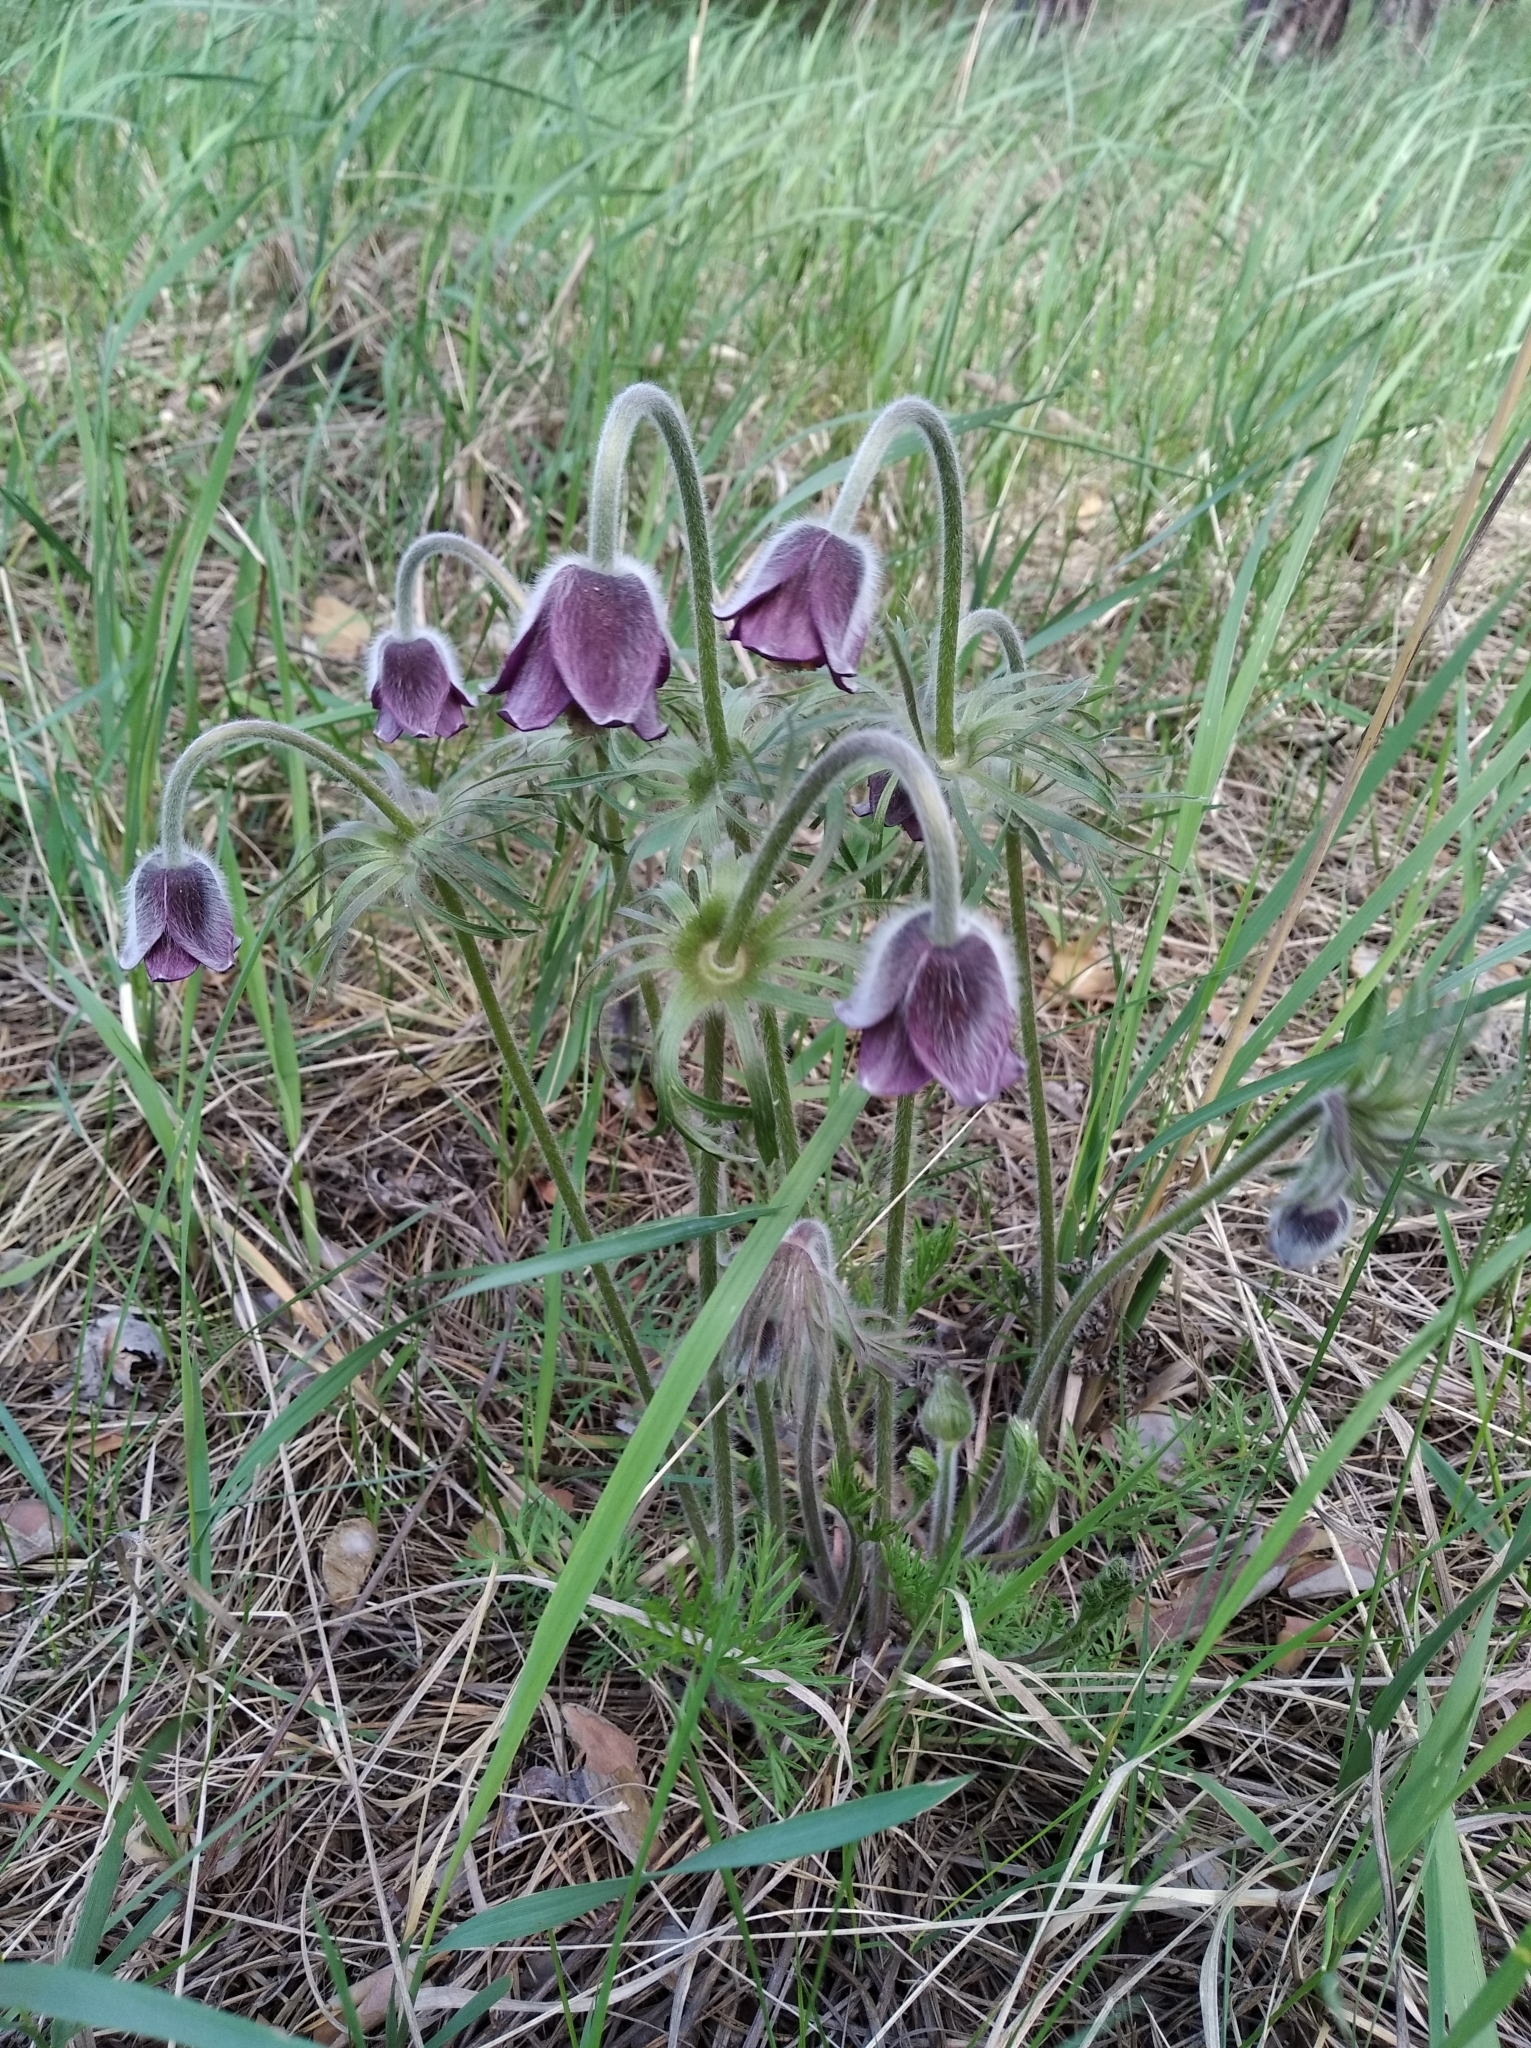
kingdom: Plantae
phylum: Tracheophyta
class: Magnoliopsida
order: Ranunculales
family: Ranunculaceae
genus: Pulsatilla
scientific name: Pulsatilla pratensis
